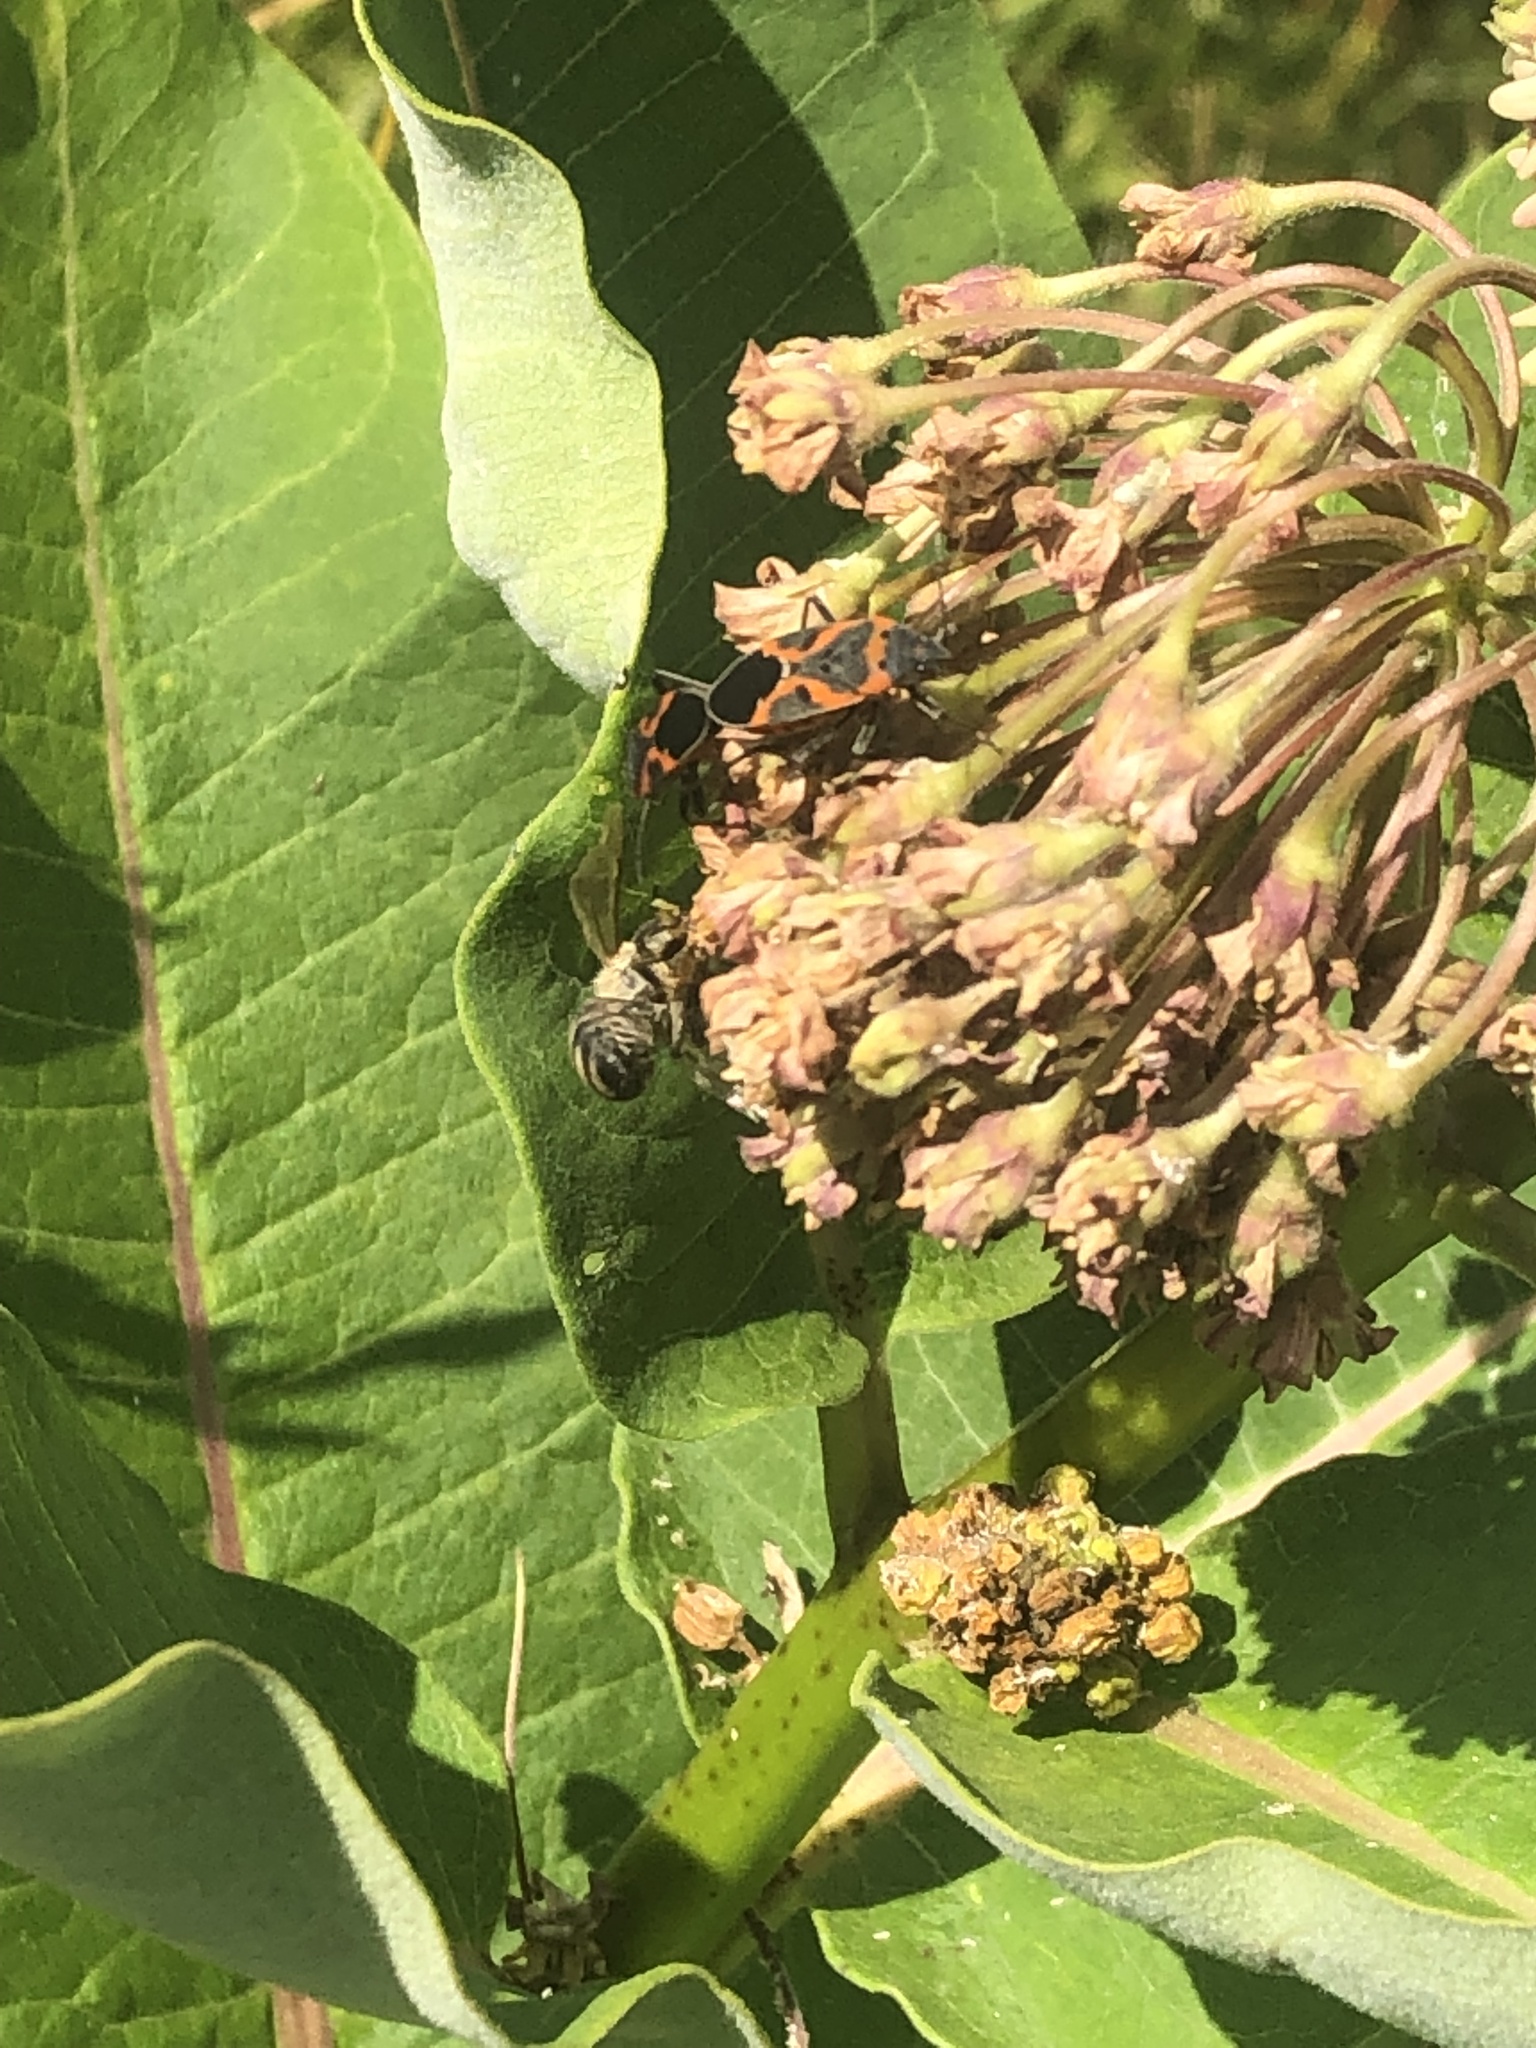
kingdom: Animalia
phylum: Arthropoda
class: Insecta
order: Hemiptera
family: Lygaeidae
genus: Lygaeus
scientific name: Lygaeus kalmii
